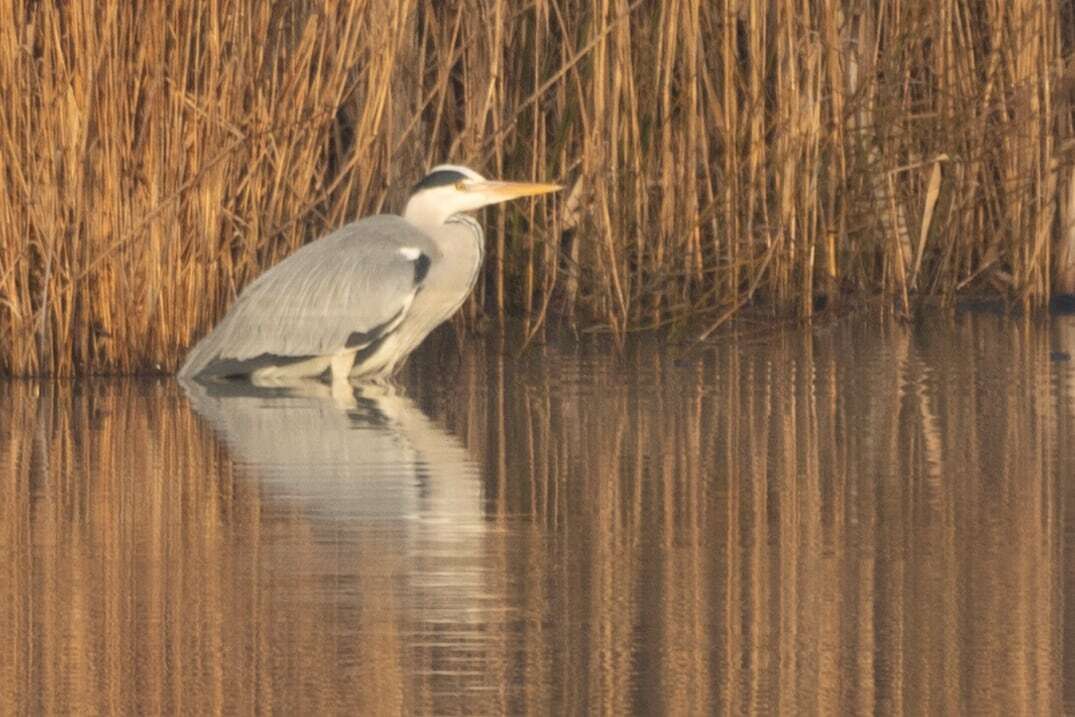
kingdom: Animalia
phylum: Chordata
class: Aves
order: Pelecaniformes
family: Ardeidae
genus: Ardea
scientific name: Ardea cinerea
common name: Grey heron
